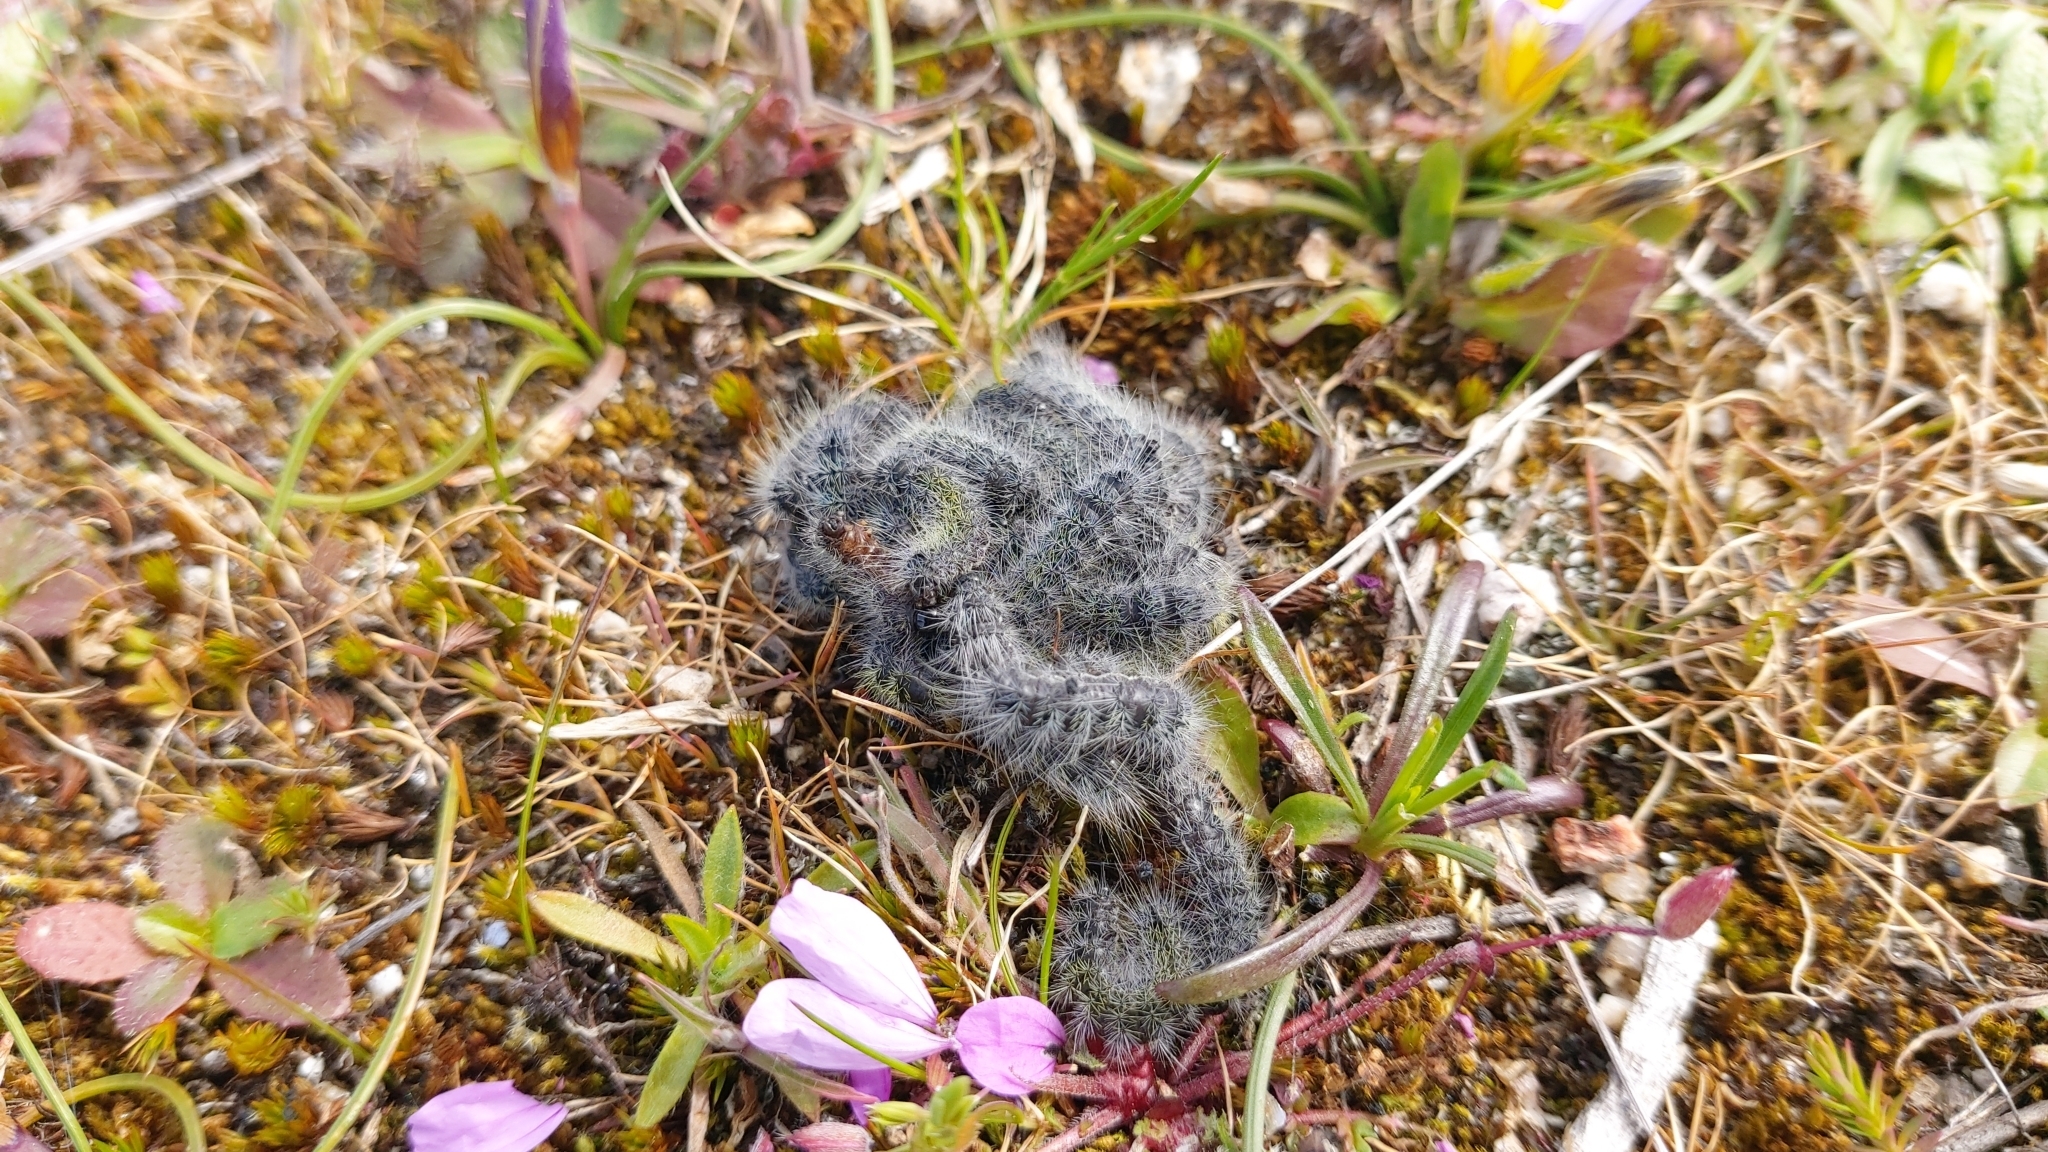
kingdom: Animalia
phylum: Arthropoda
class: Insecta
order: Lepidoptera
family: Notodontidae
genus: Thaumetopoea
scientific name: Thaumetopoea herculeana
